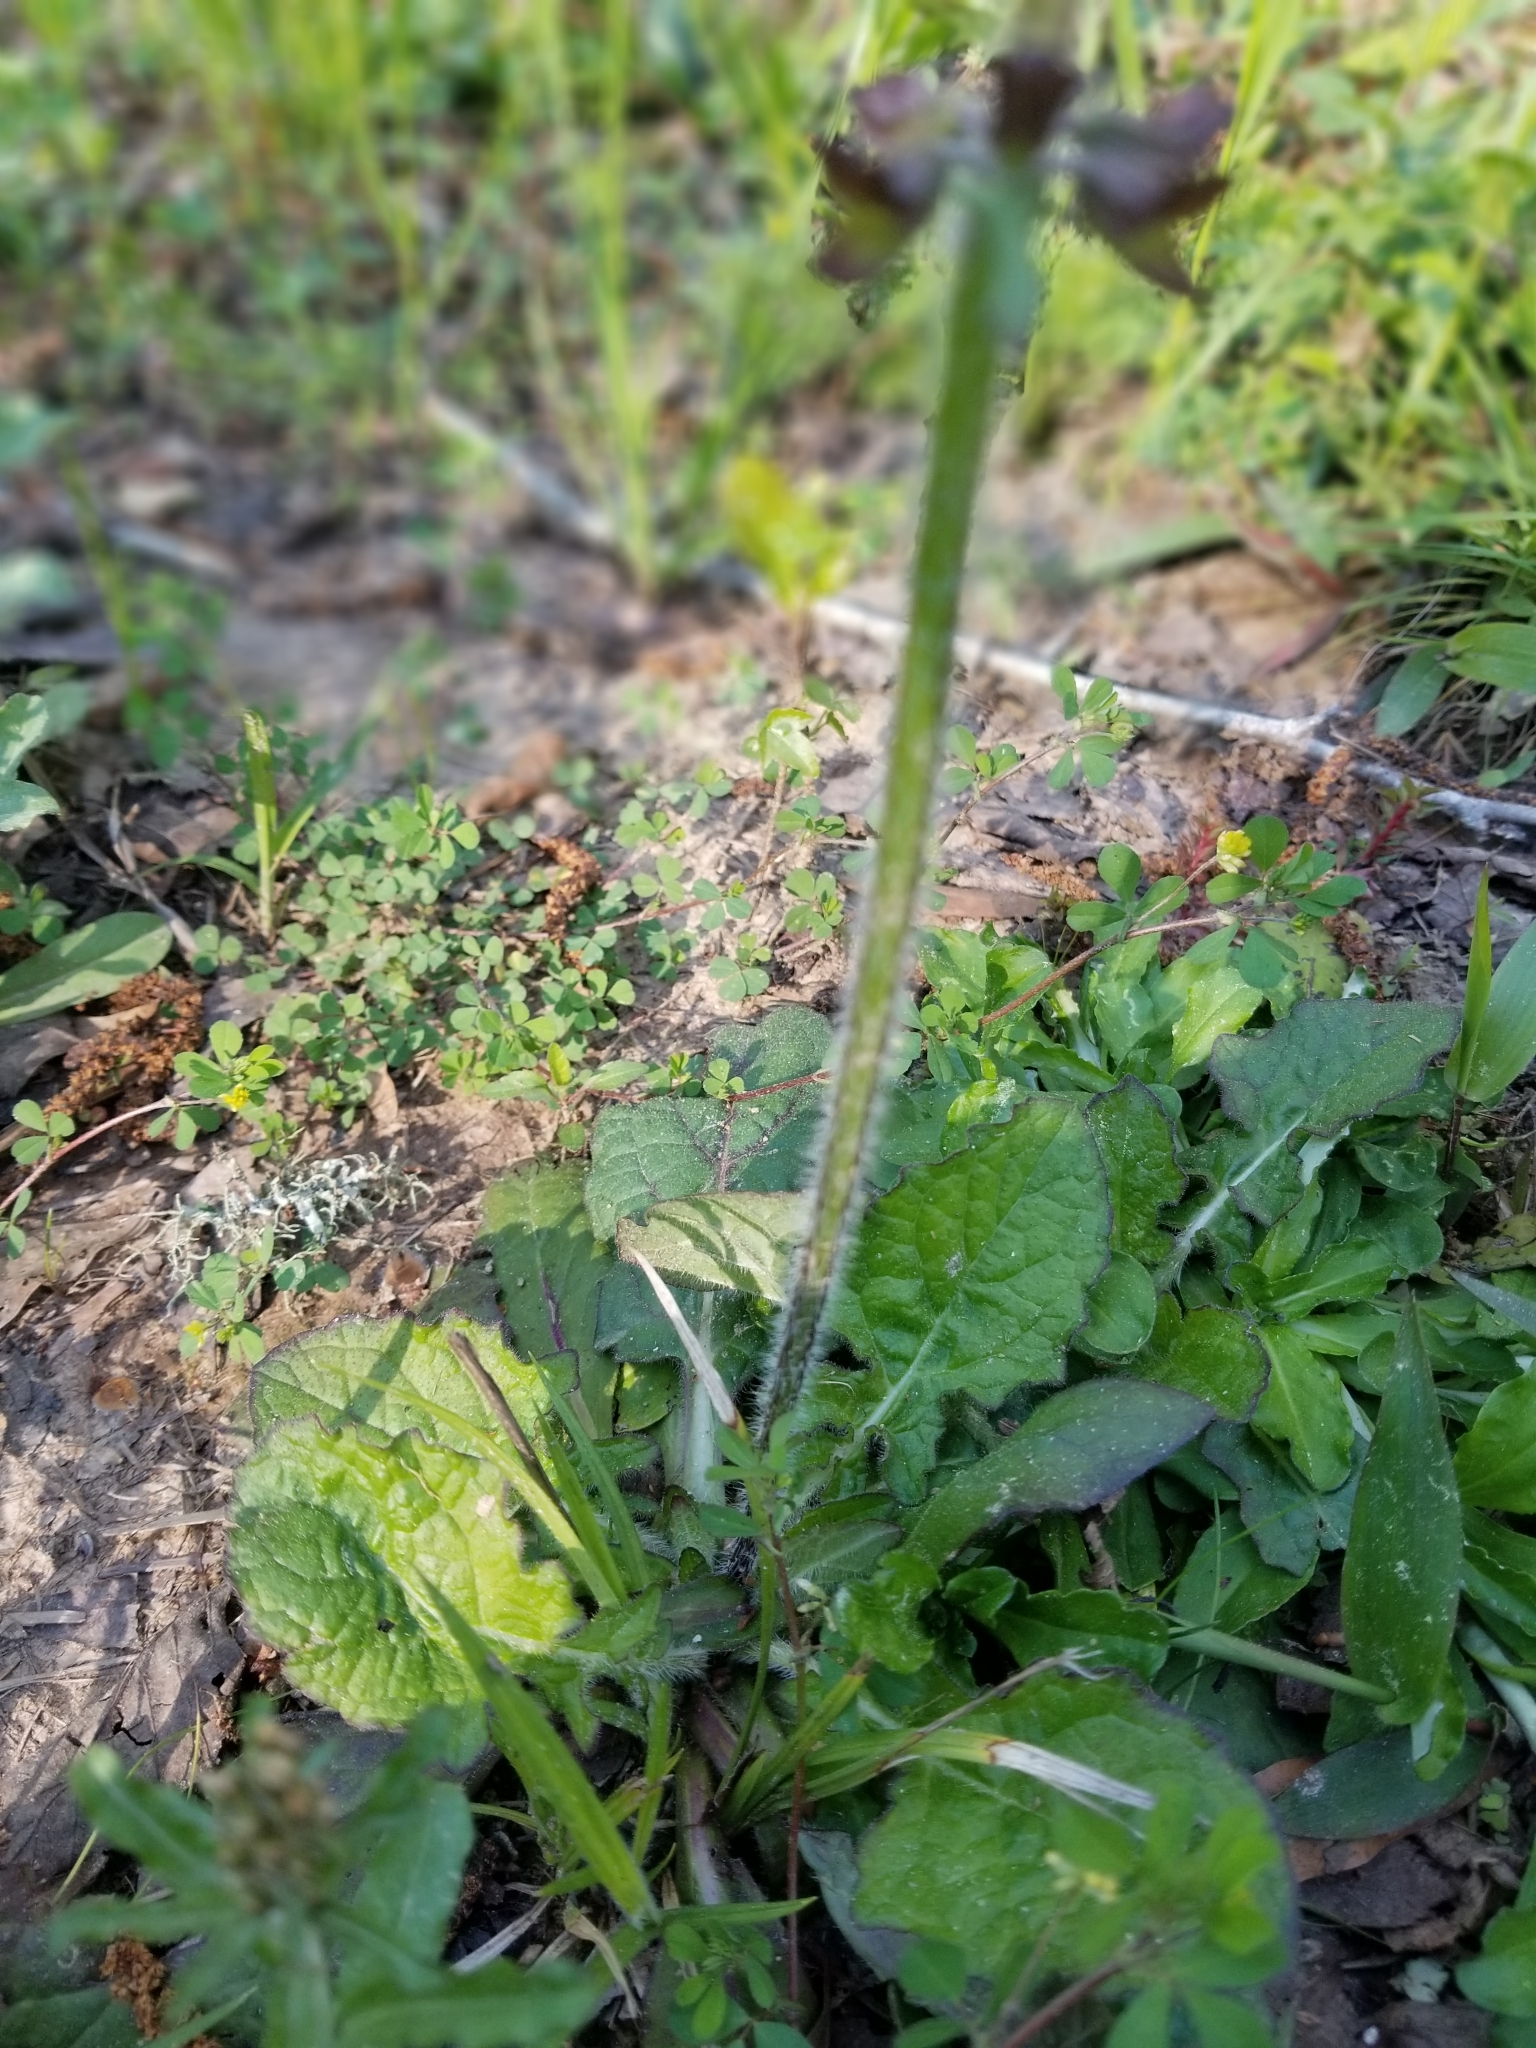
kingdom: Plantae
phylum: Tracheophyta
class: Magnoliopsida
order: Lamiales
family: Lamiaceae
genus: Salvia
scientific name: Salvia lyrata
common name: Cancerweed
